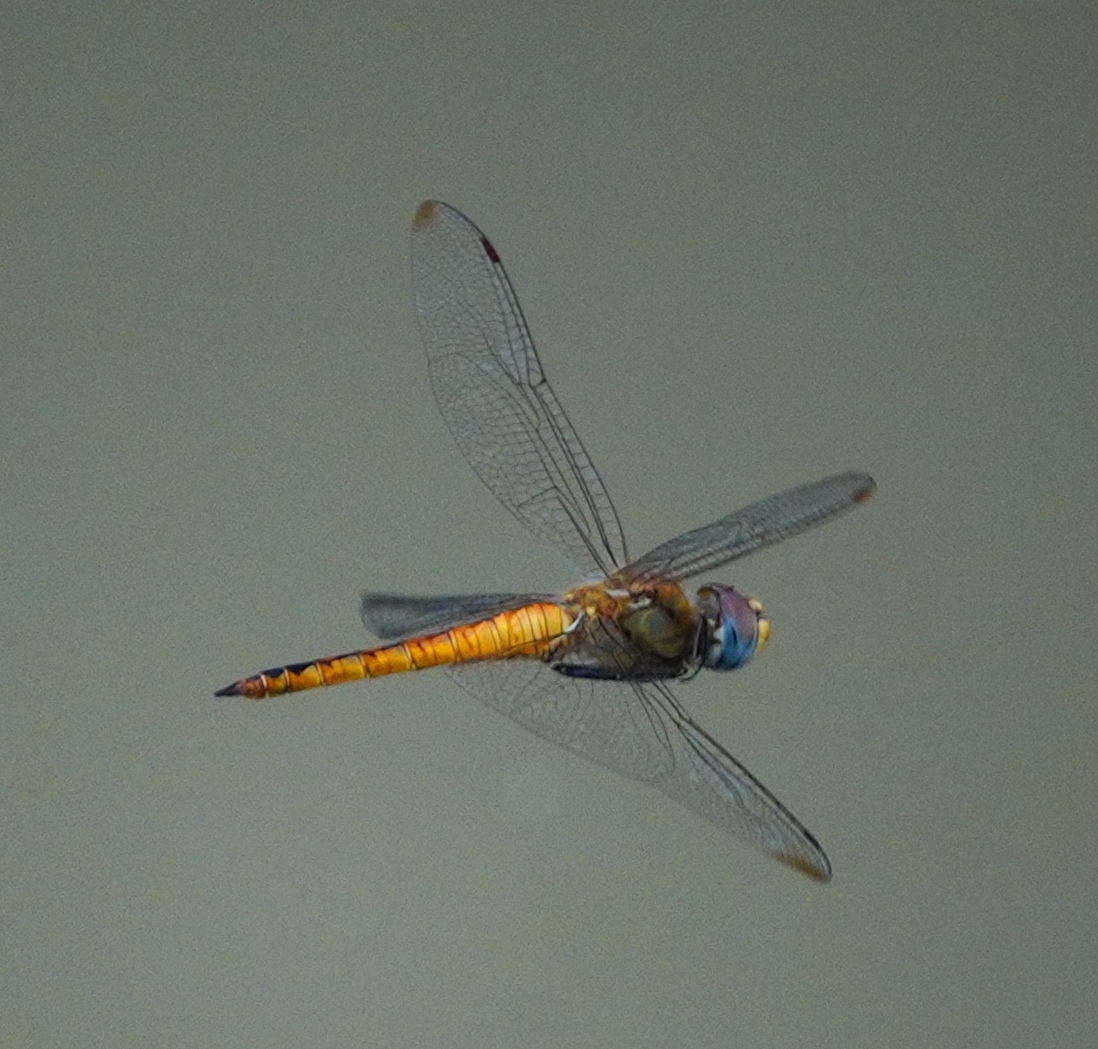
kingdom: Animalia
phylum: Arthropoda
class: Insecta
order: Odonata
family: Libellulidae
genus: Pantala
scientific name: Pantala flavescens
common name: Wandering glider
